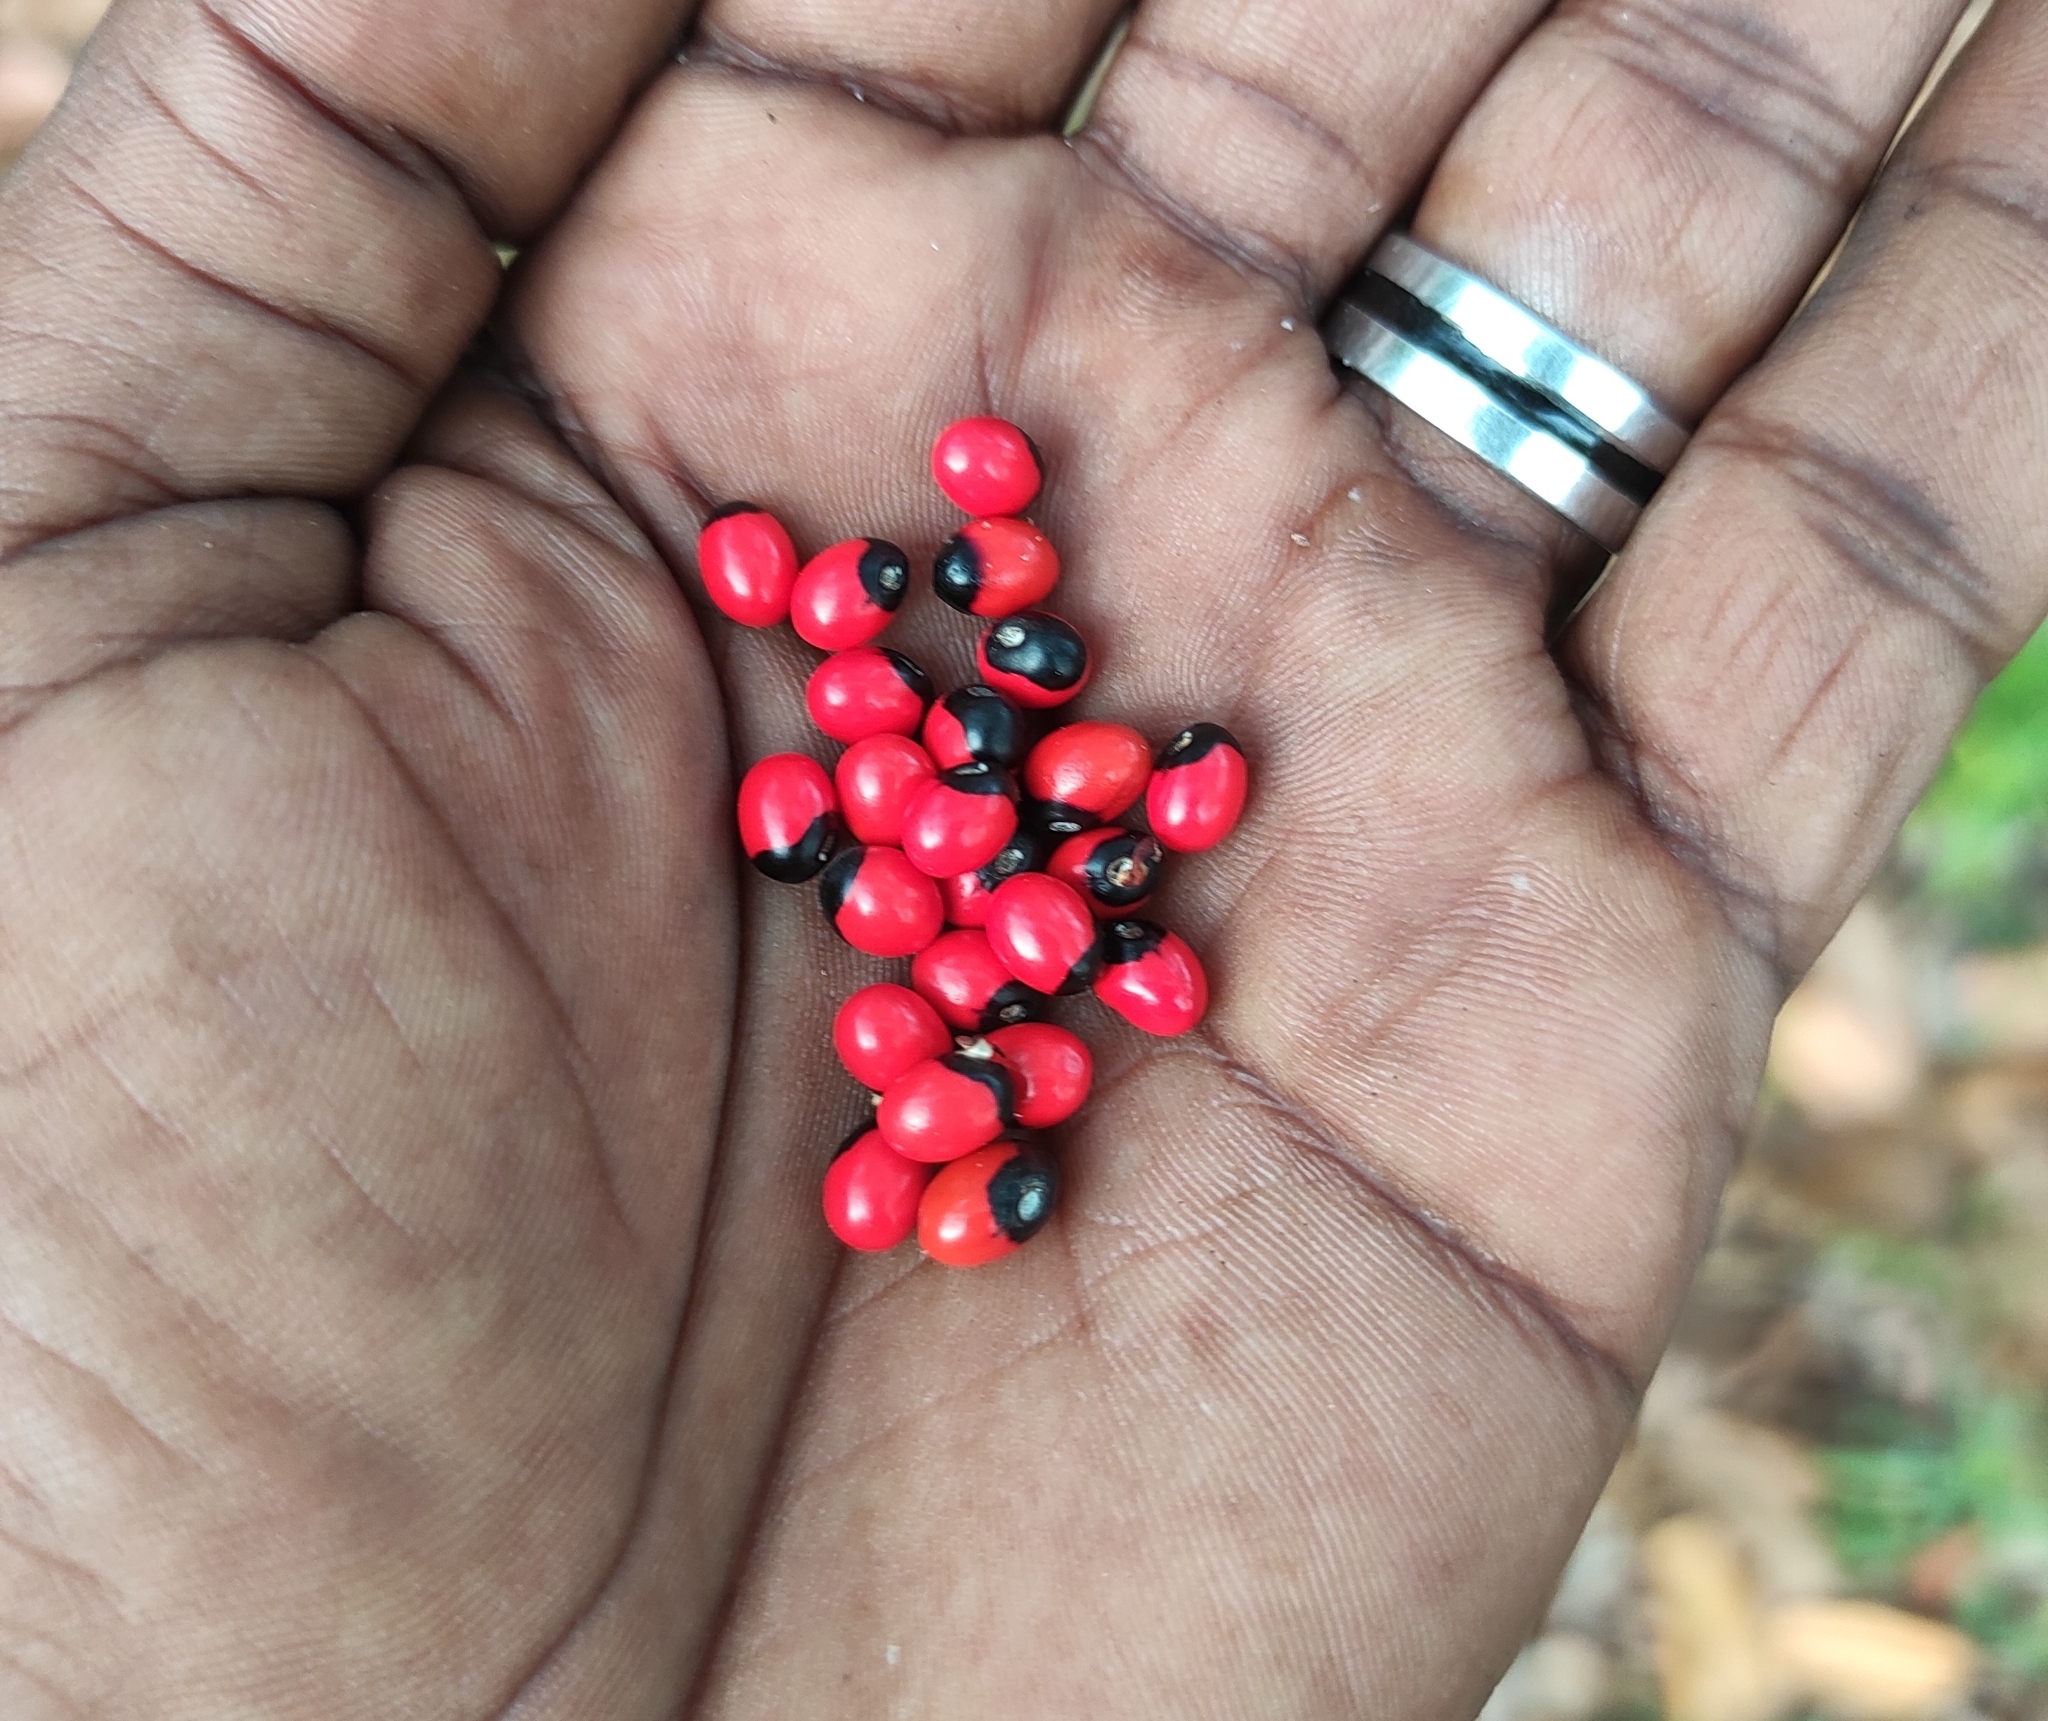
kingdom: Plantae
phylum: Tracheophyta
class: Magnoliopsida
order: Fabales
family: Fabaceae
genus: Abrus
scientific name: Abrus precatorius
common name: Rosarypea
